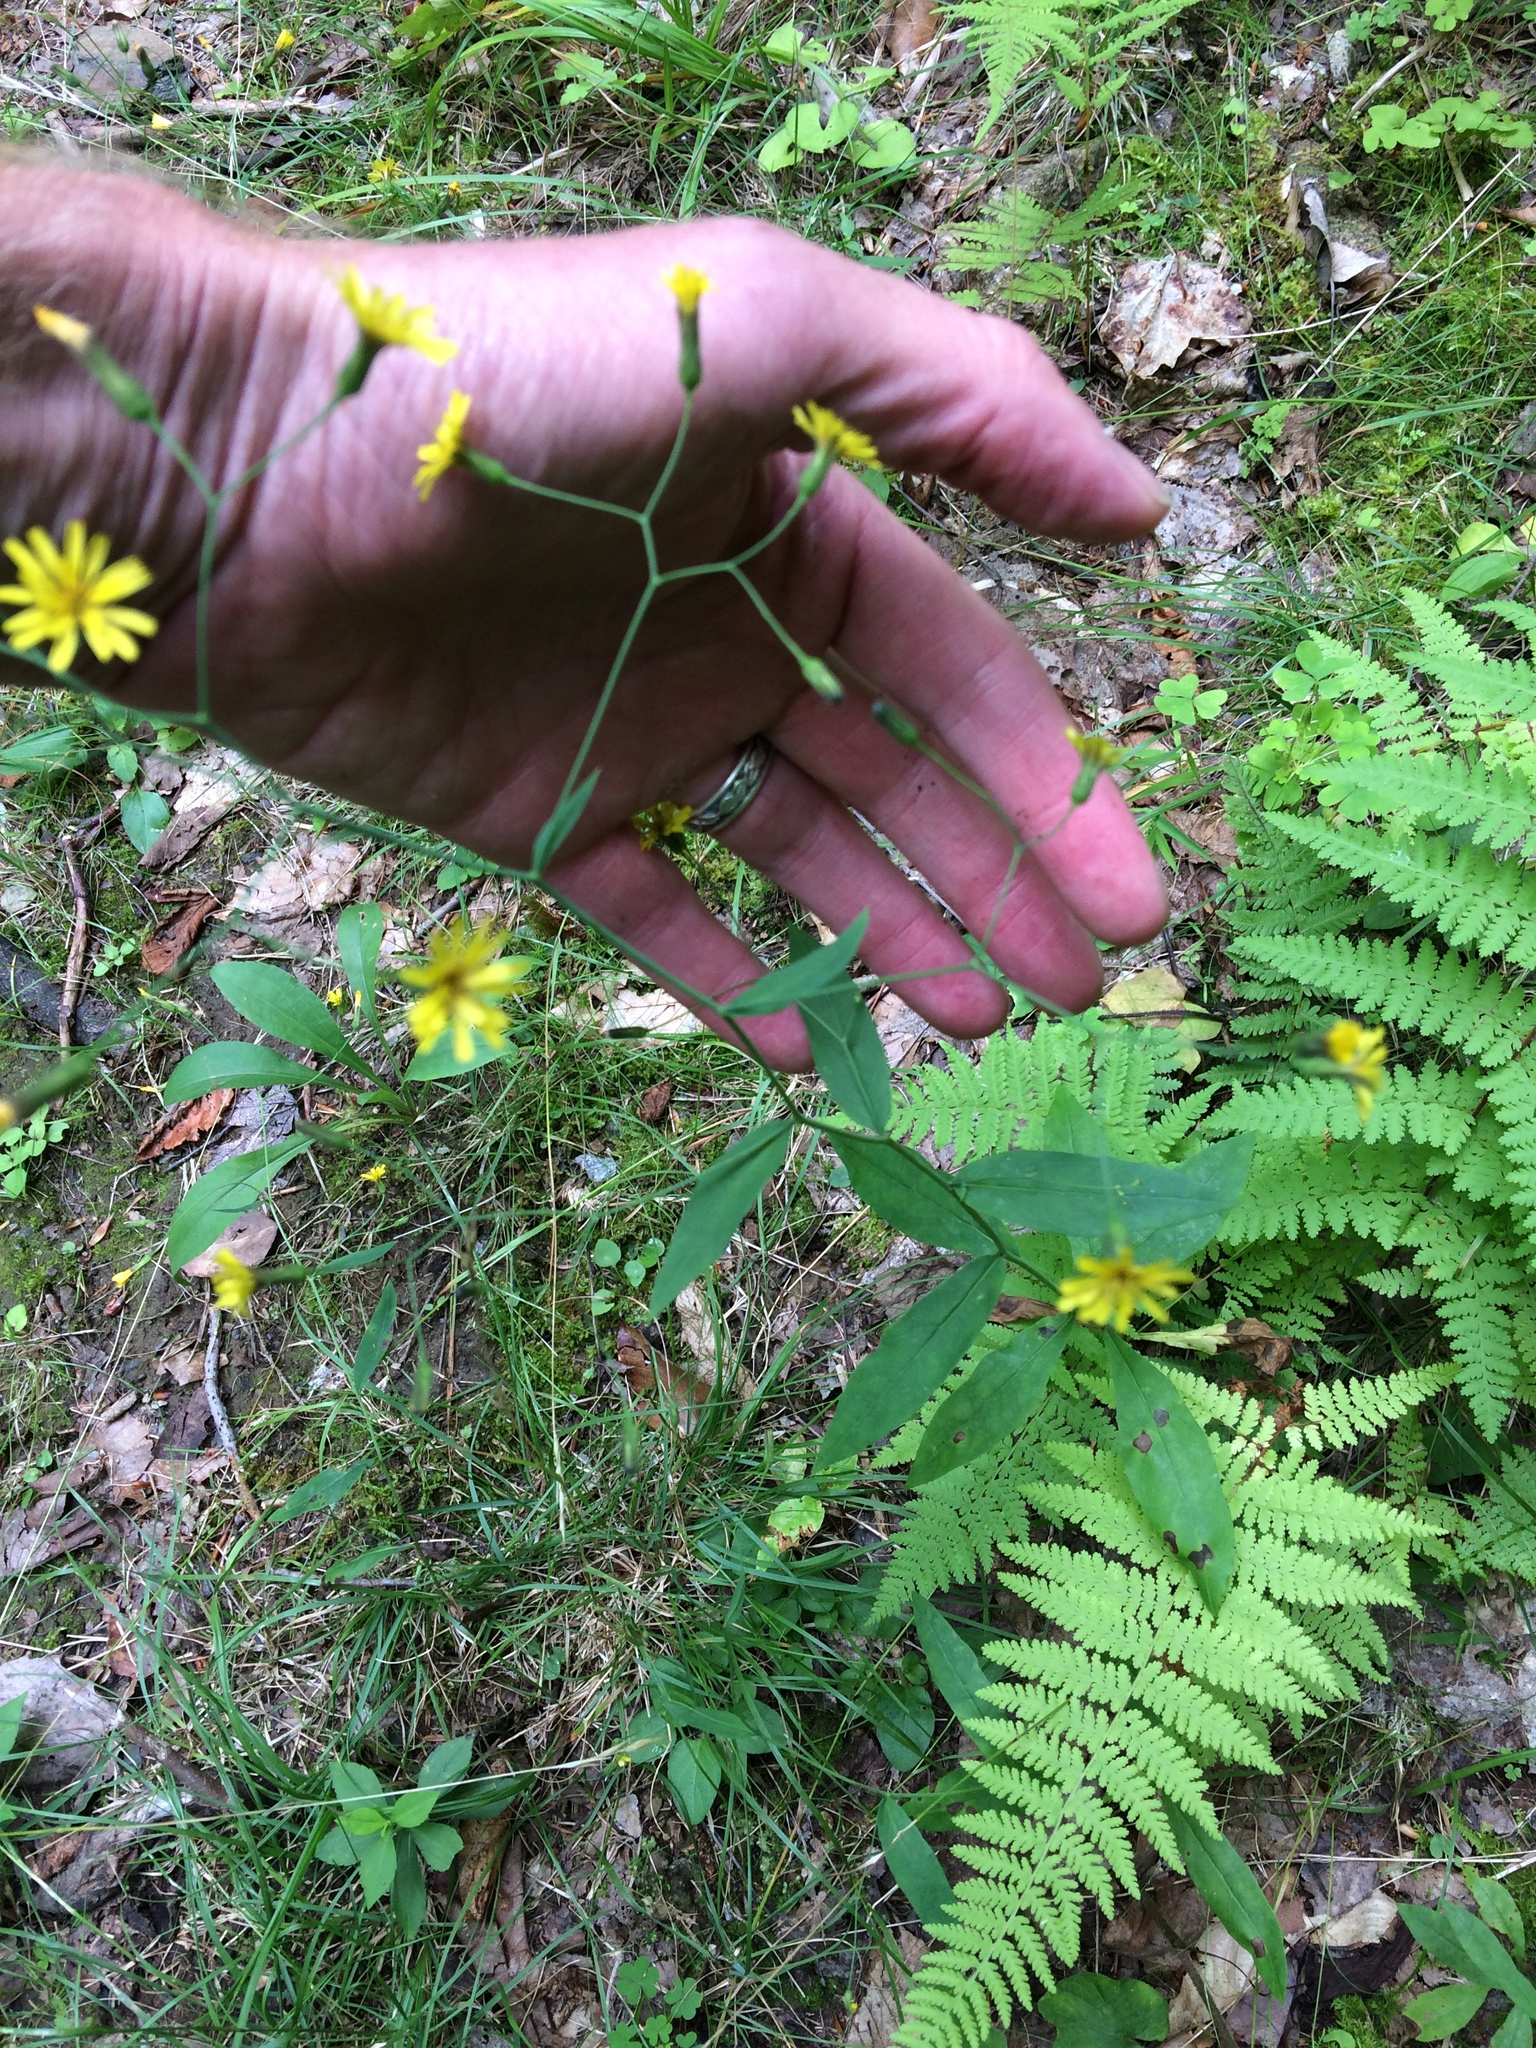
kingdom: Plantae
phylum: Tracheophyta
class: Magnoliopsida
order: Asterales
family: Asteraceae
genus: Hieracium
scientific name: Hieracium paniculatum
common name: Allegheny hawkweed
